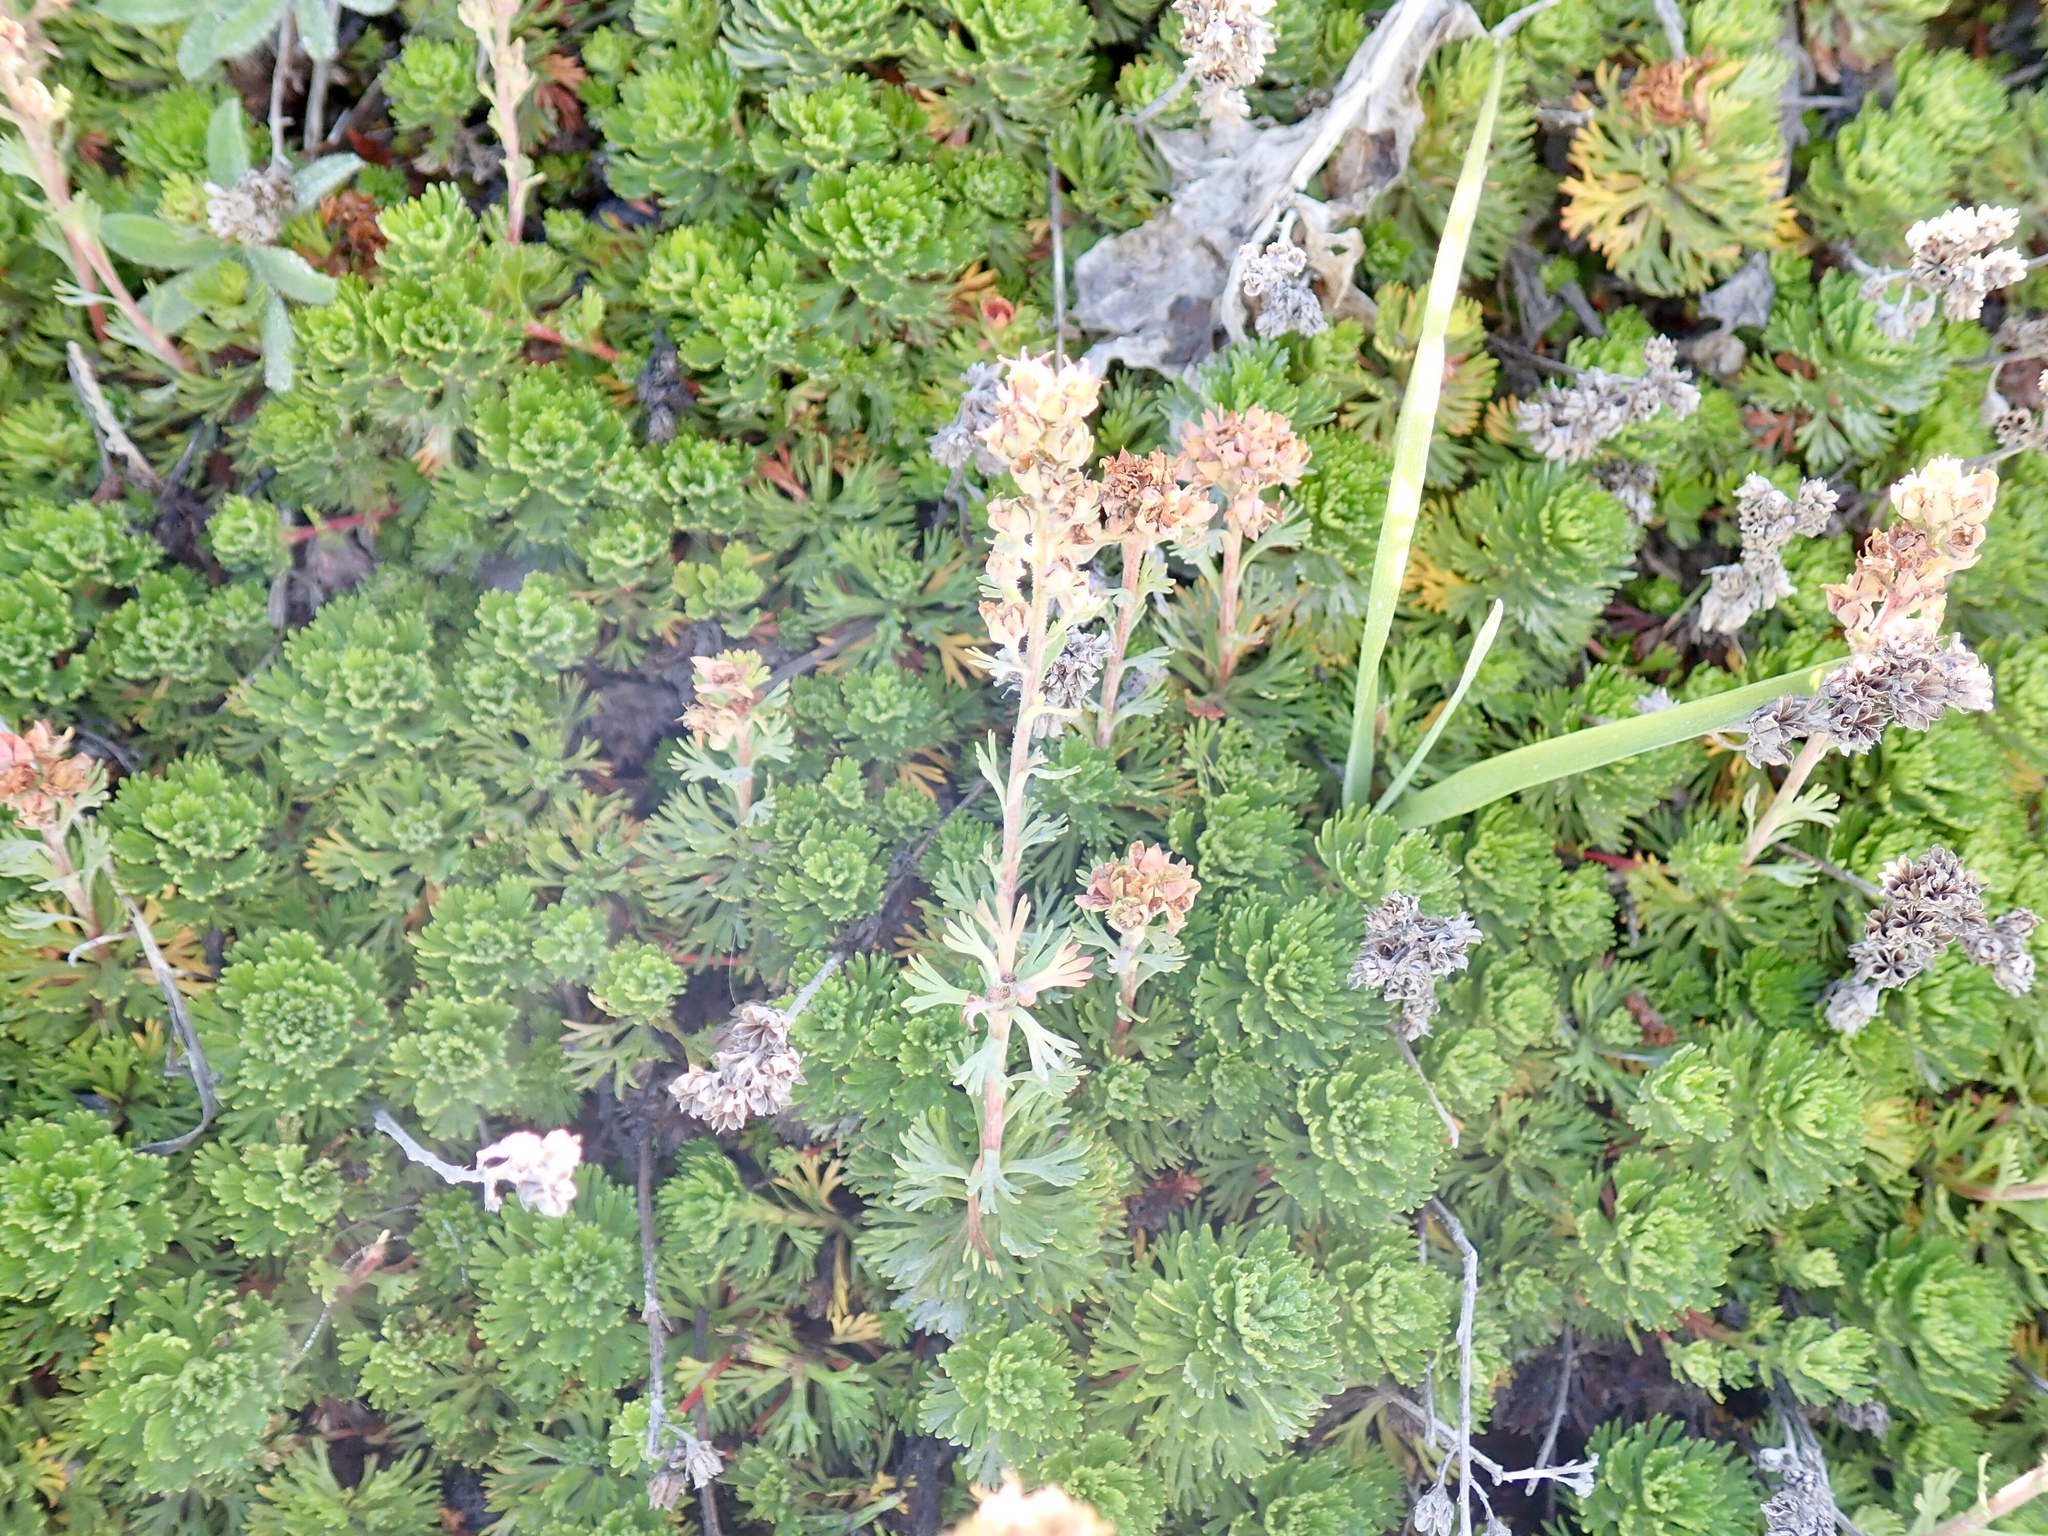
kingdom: Plantae
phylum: Tracheophyta
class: Magnoliopsida
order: Rosales
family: Rosaceae
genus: Luetkea
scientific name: Luetkea pectinata
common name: Partridgefoot
